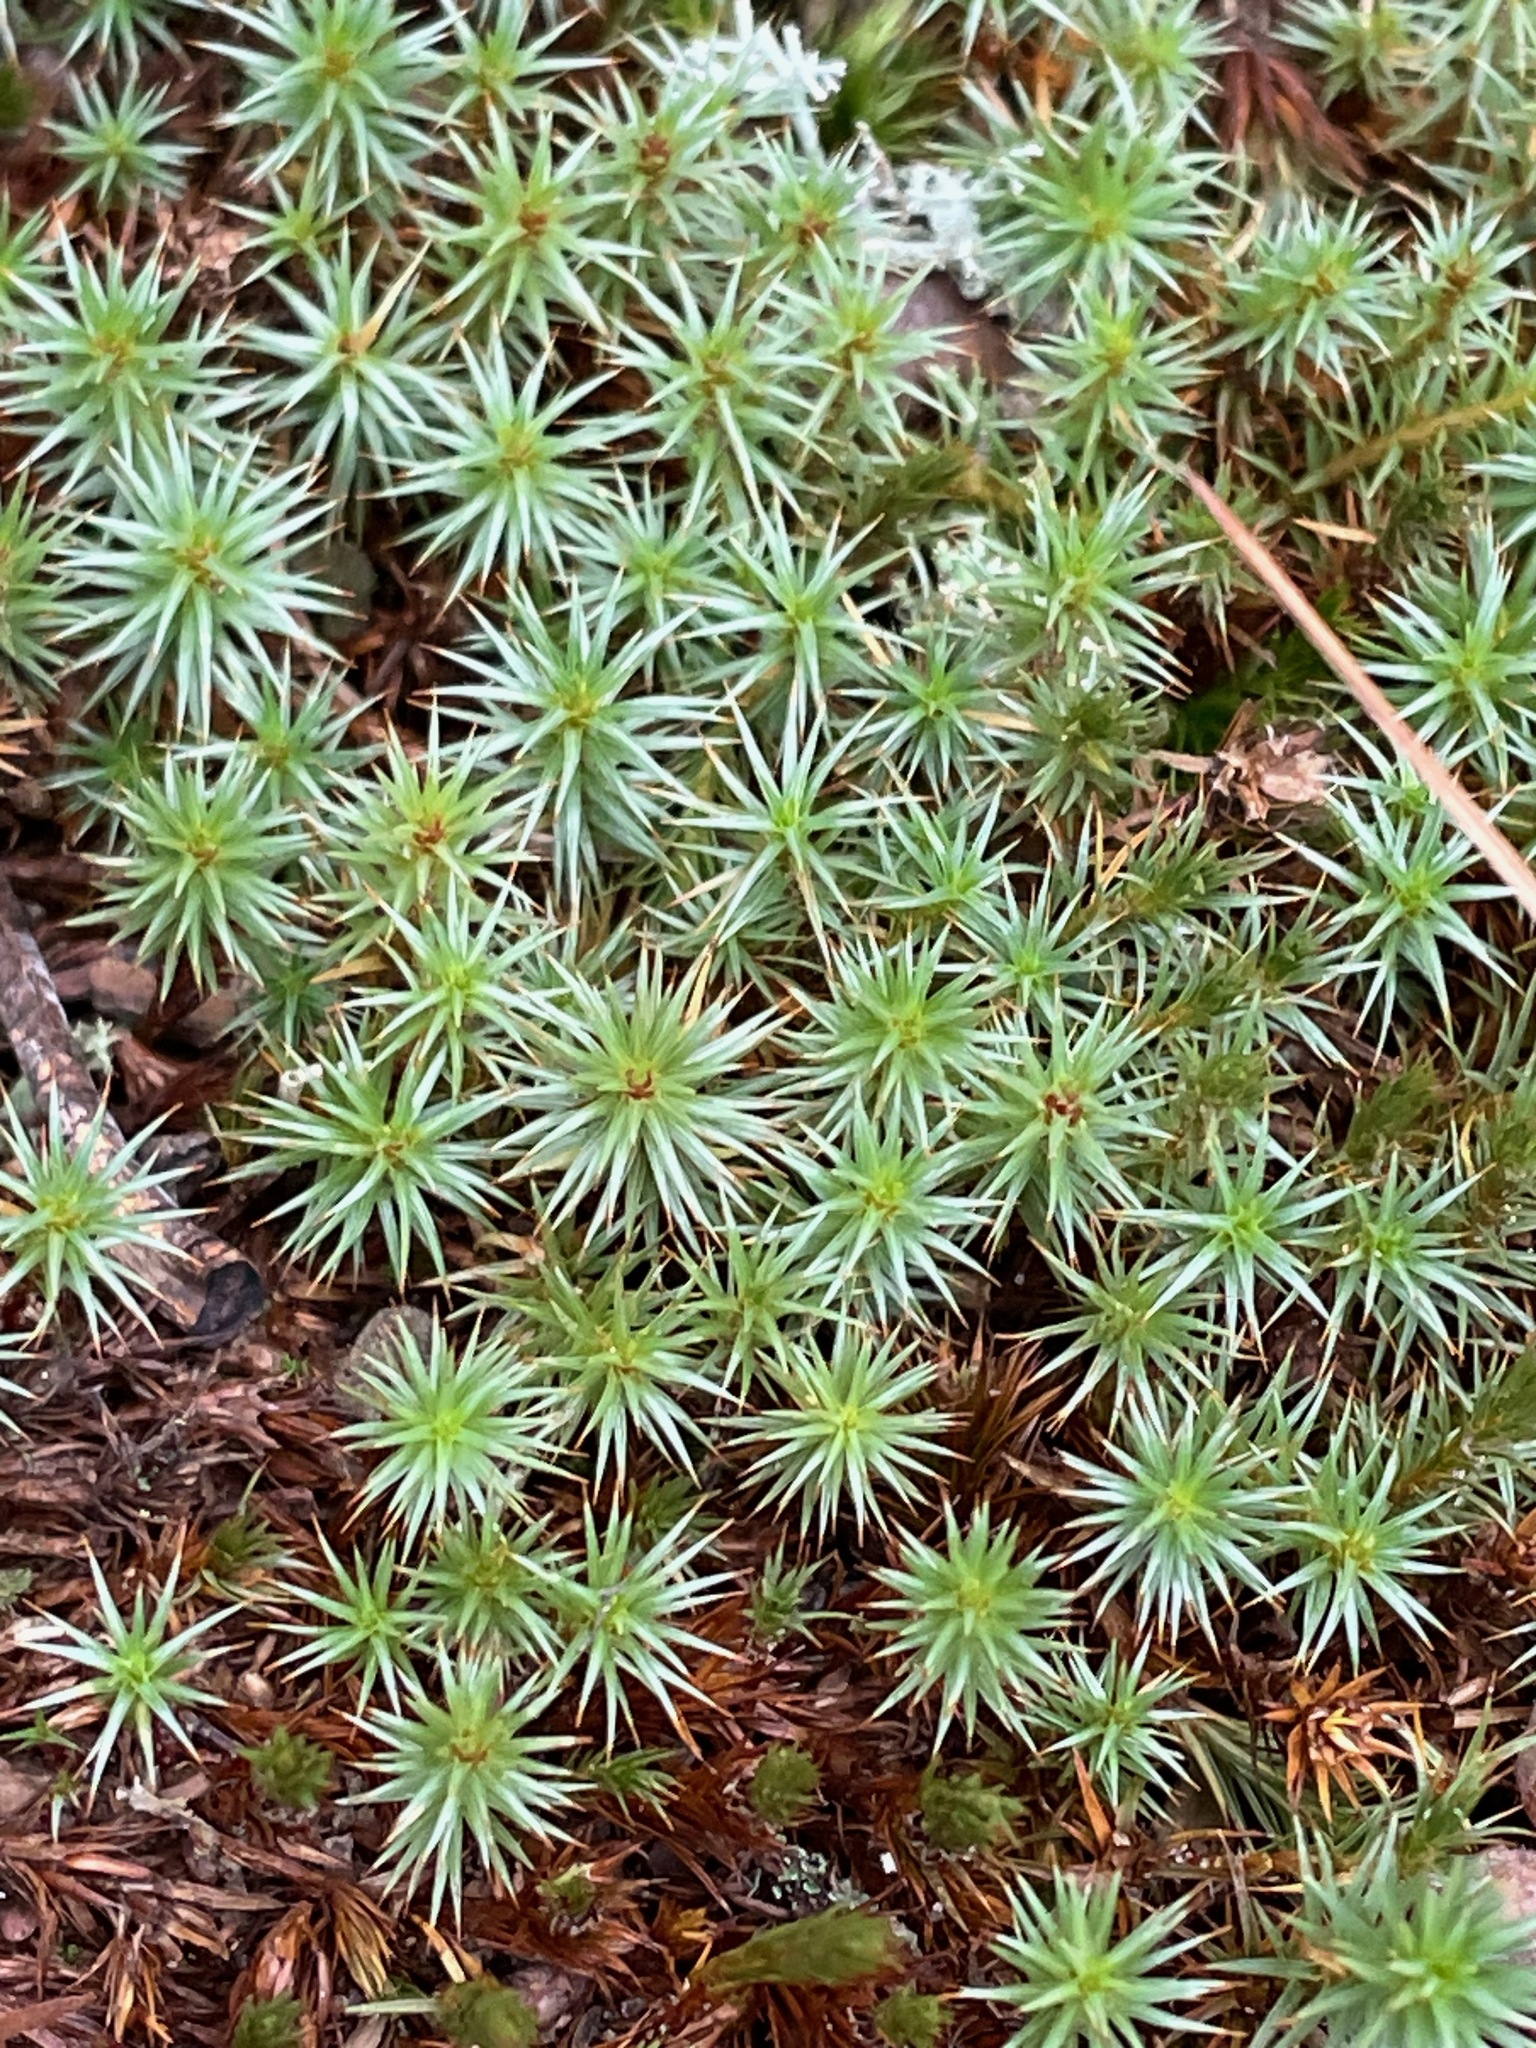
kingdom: Plantae
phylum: Bryophyta
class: Polytrichopsida
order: Polytrichales
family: Polytrichaceae
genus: Polytrichum
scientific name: Polytrichum juniperinum
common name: Juniper haircap moss
